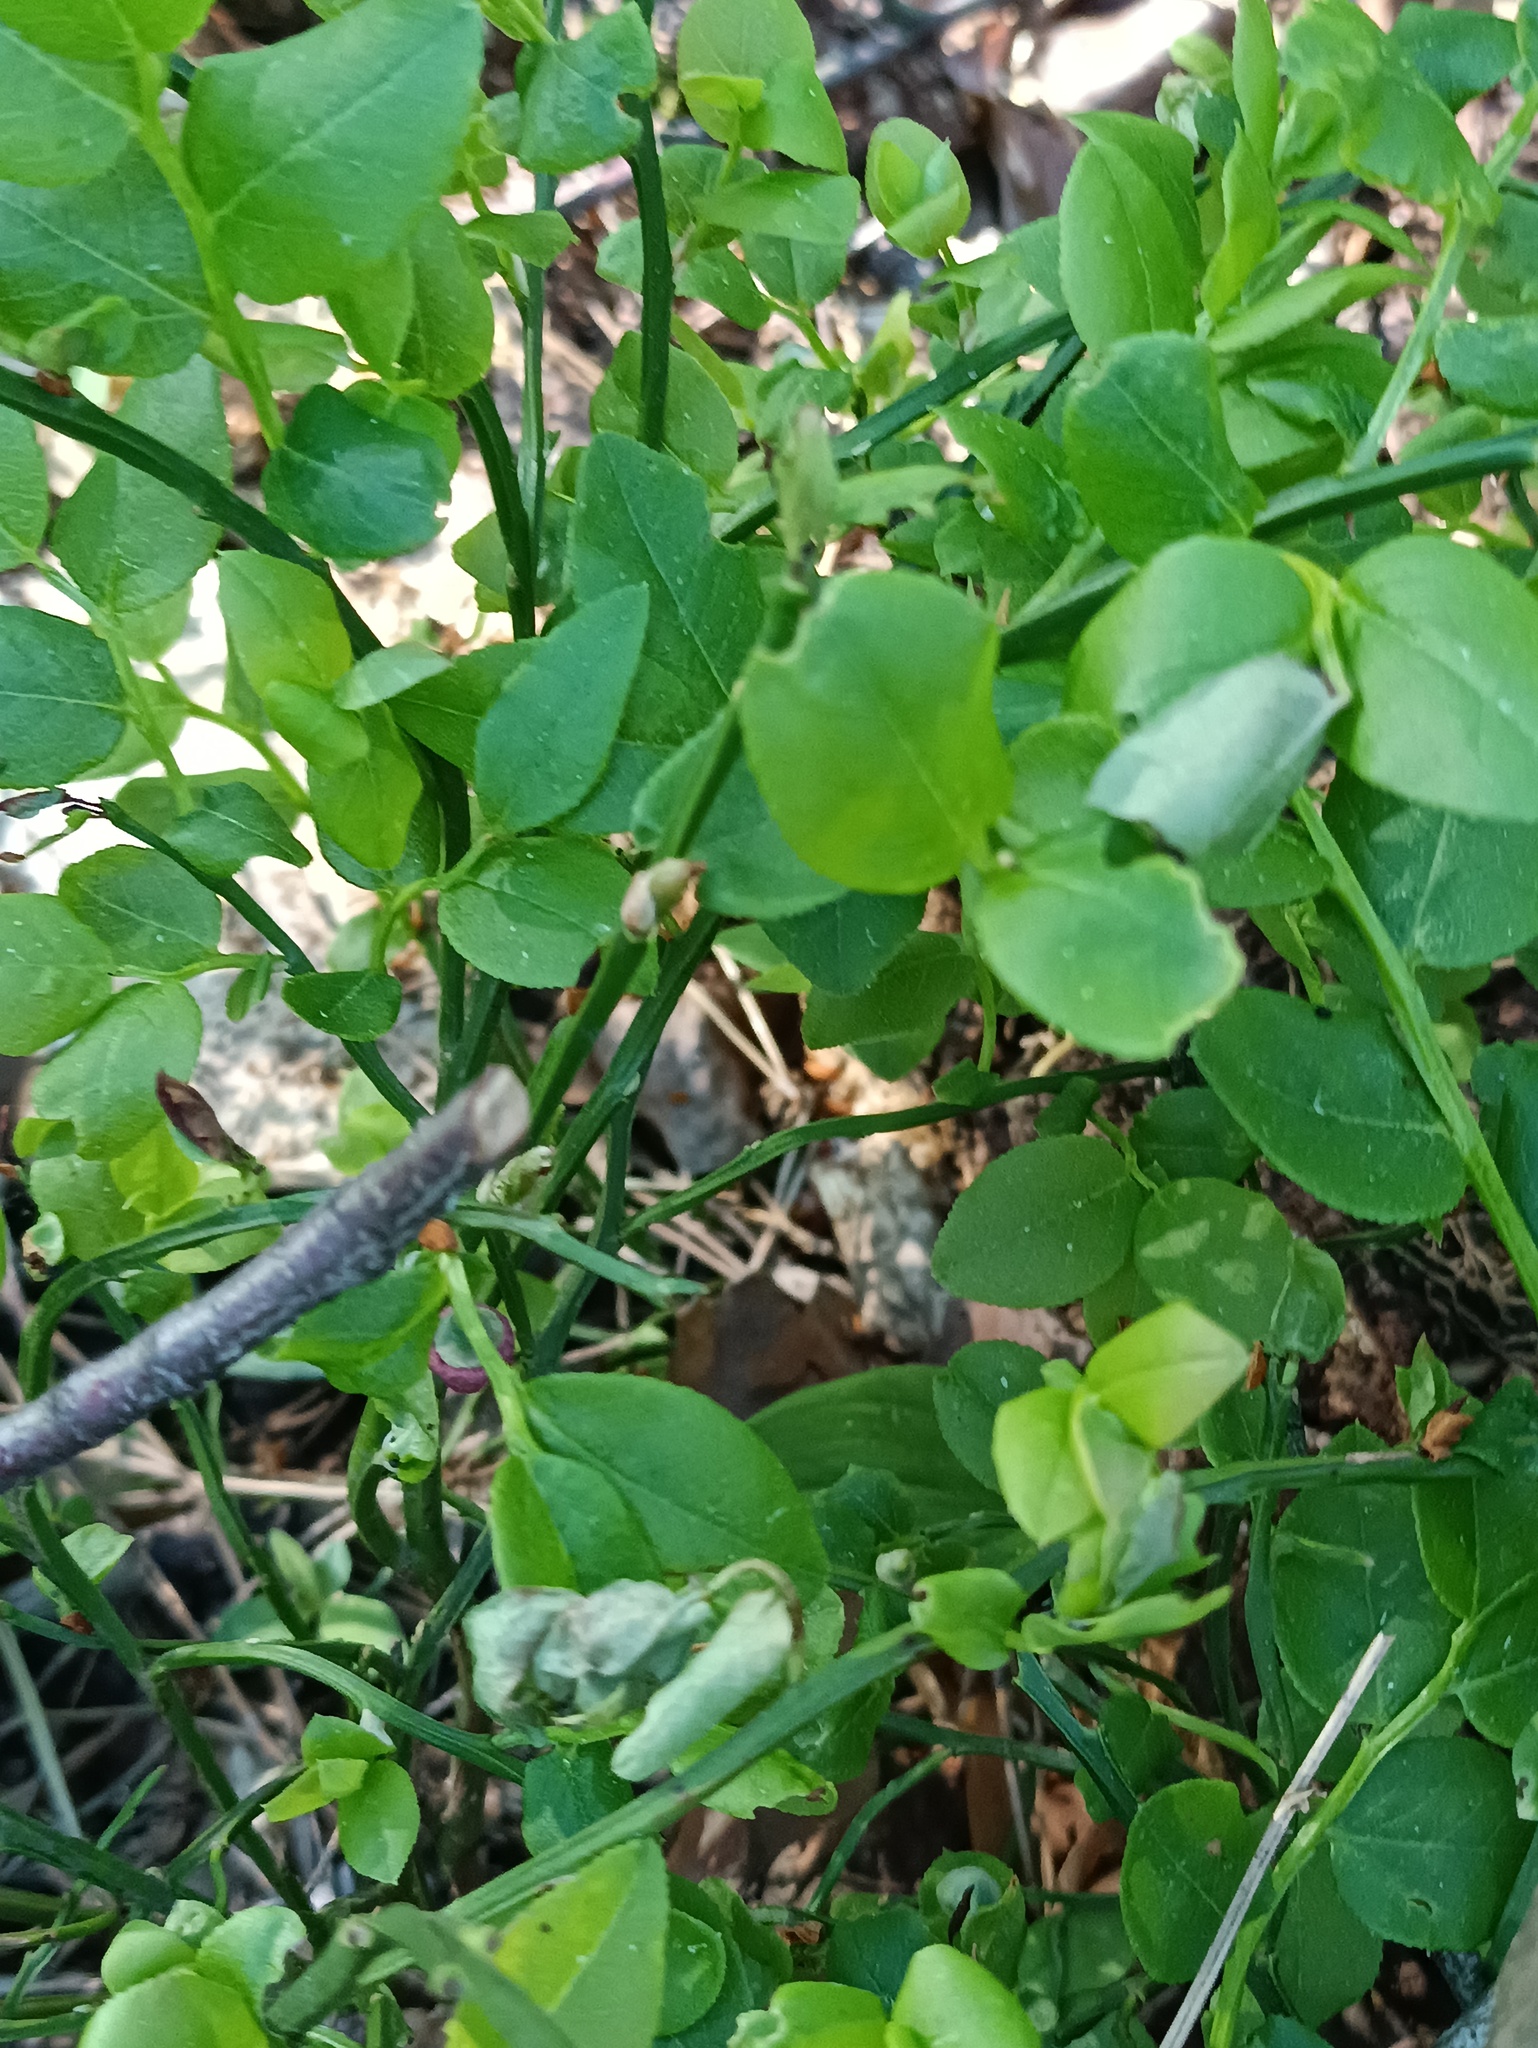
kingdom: Plantae
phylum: Tracheophyta
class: Magnoliopsida
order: Ericales
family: Ericaceae
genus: Vaccinium
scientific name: Vaccinium myrtillus
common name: Bilberry
